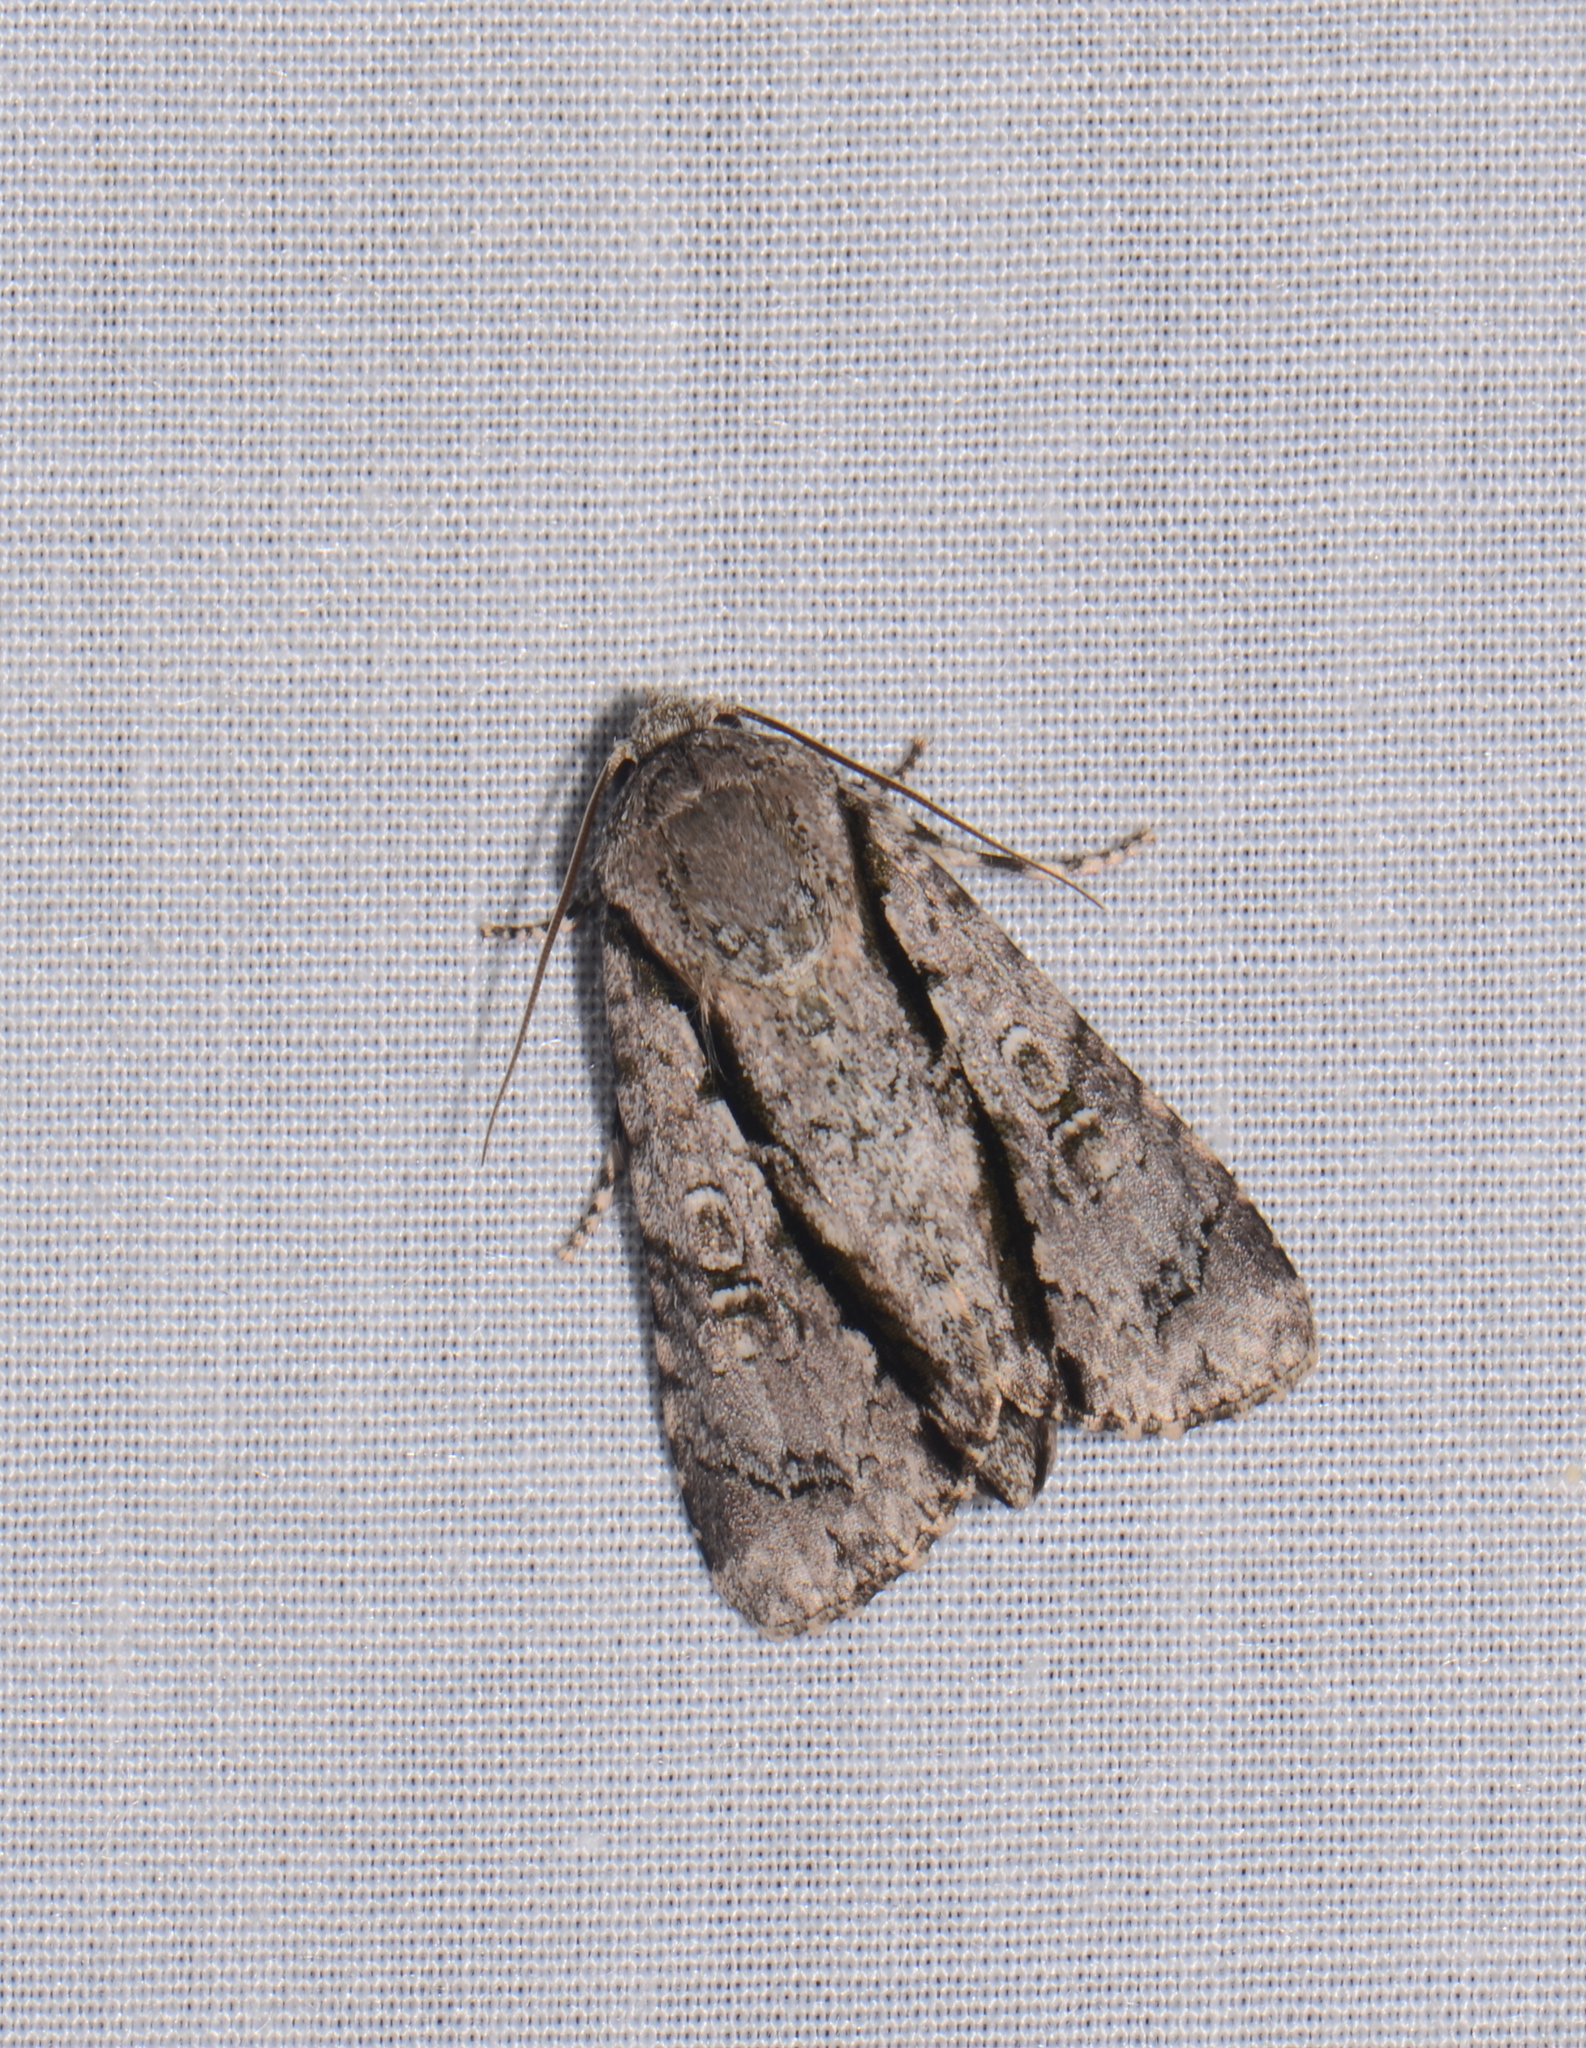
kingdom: Animalia
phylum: Arthropoda
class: Insecta
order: Lepidoptera
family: Noctuidae
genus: Craniophora
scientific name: Craniophora malesiae
